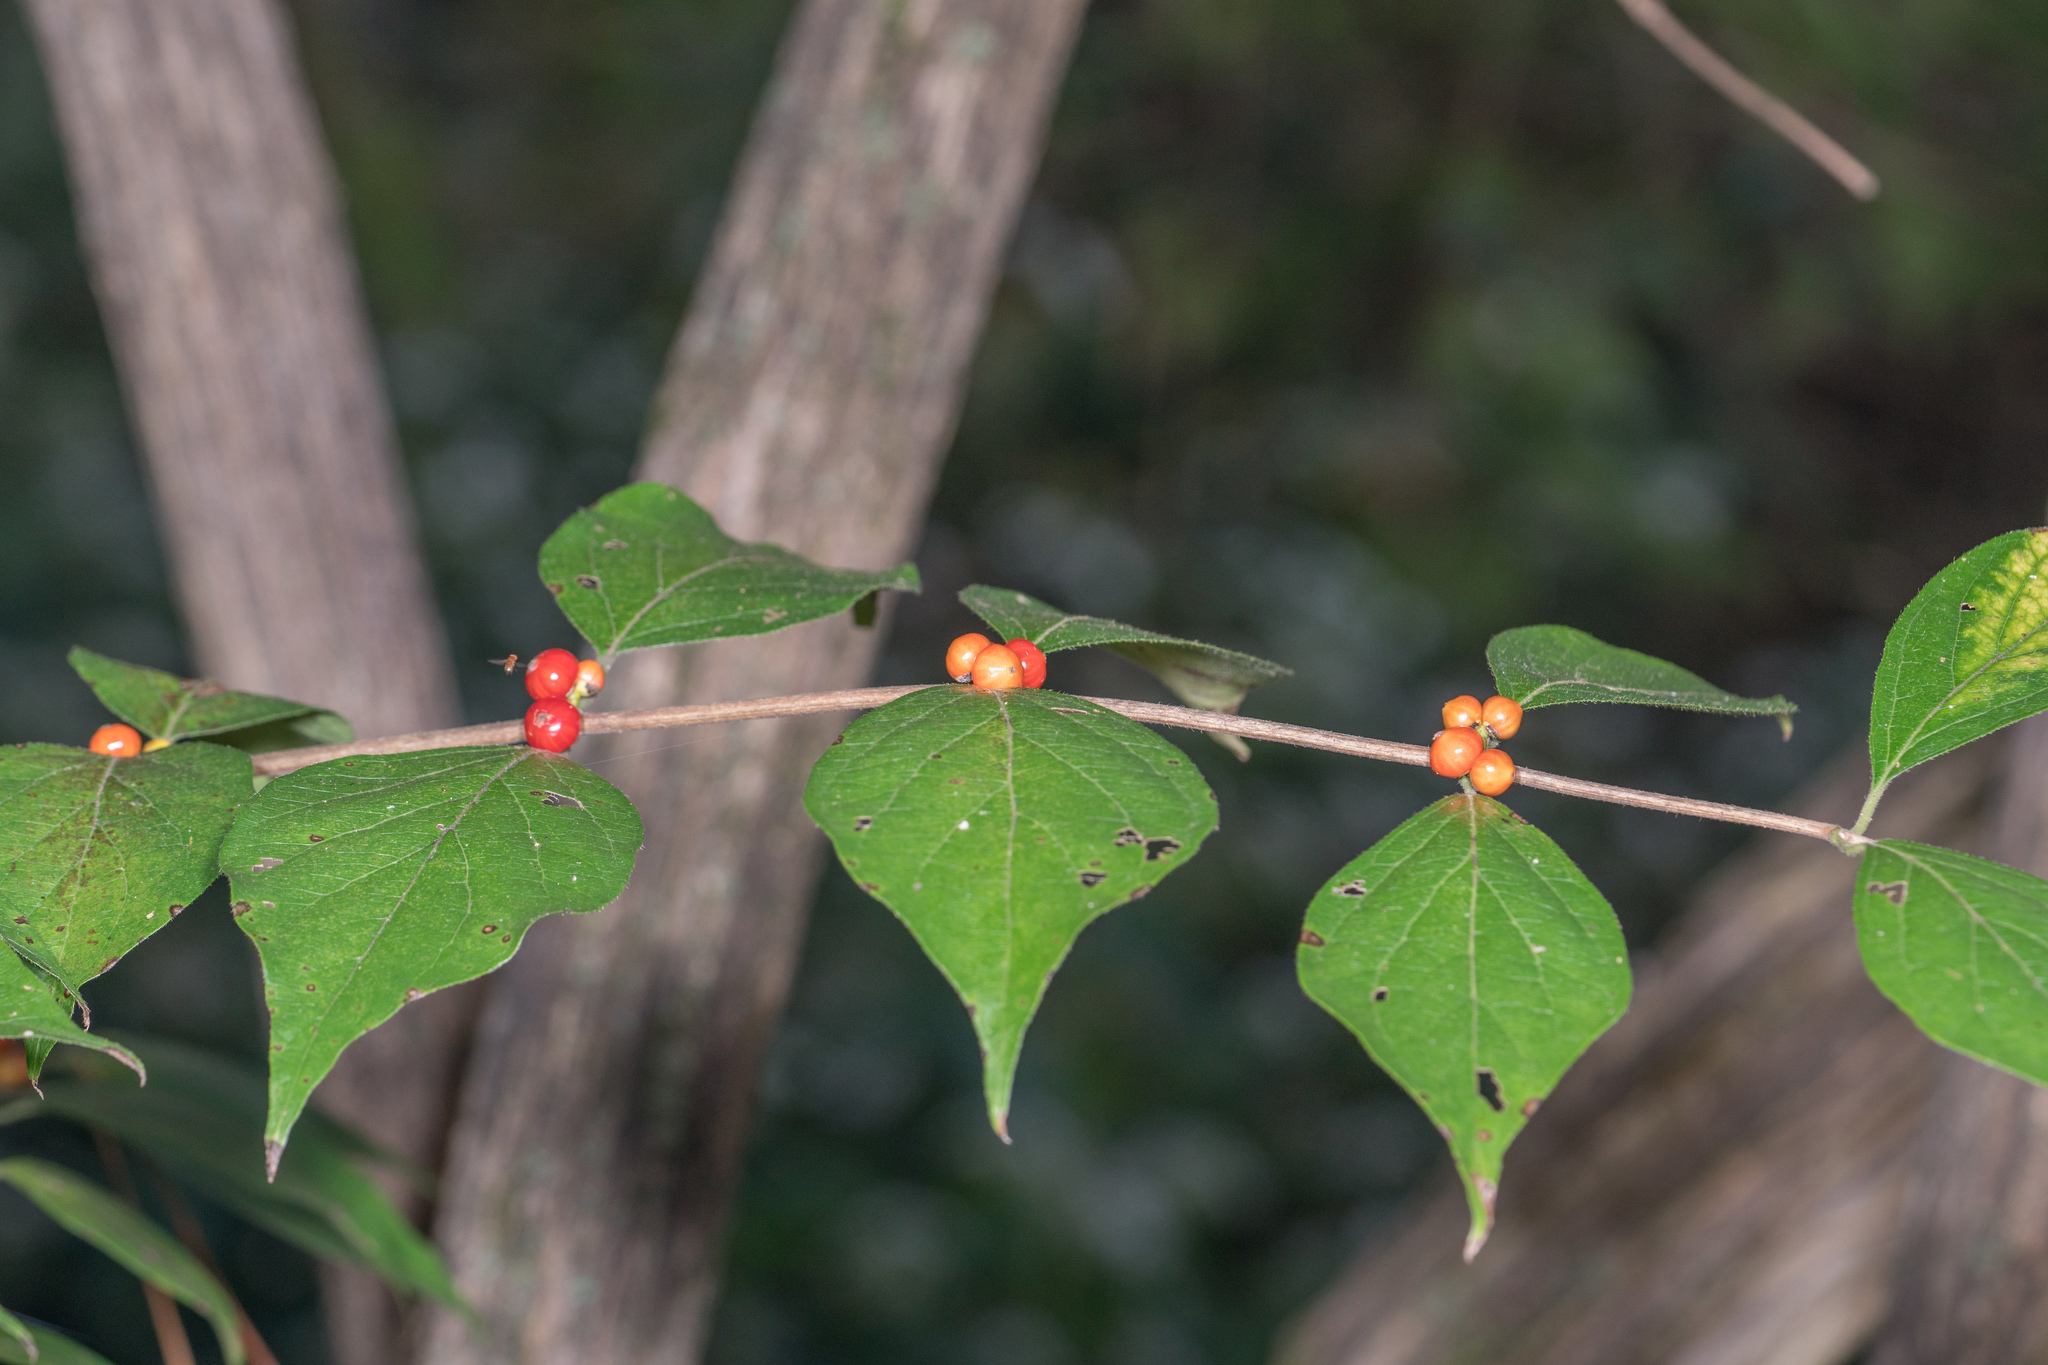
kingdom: Plantae
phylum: Tracheophyta
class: Magnoliopsida
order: Dipsacales
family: Caprifoliaceae
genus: Lonicera
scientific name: Lonicera maackii
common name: Amur honeysuckle
